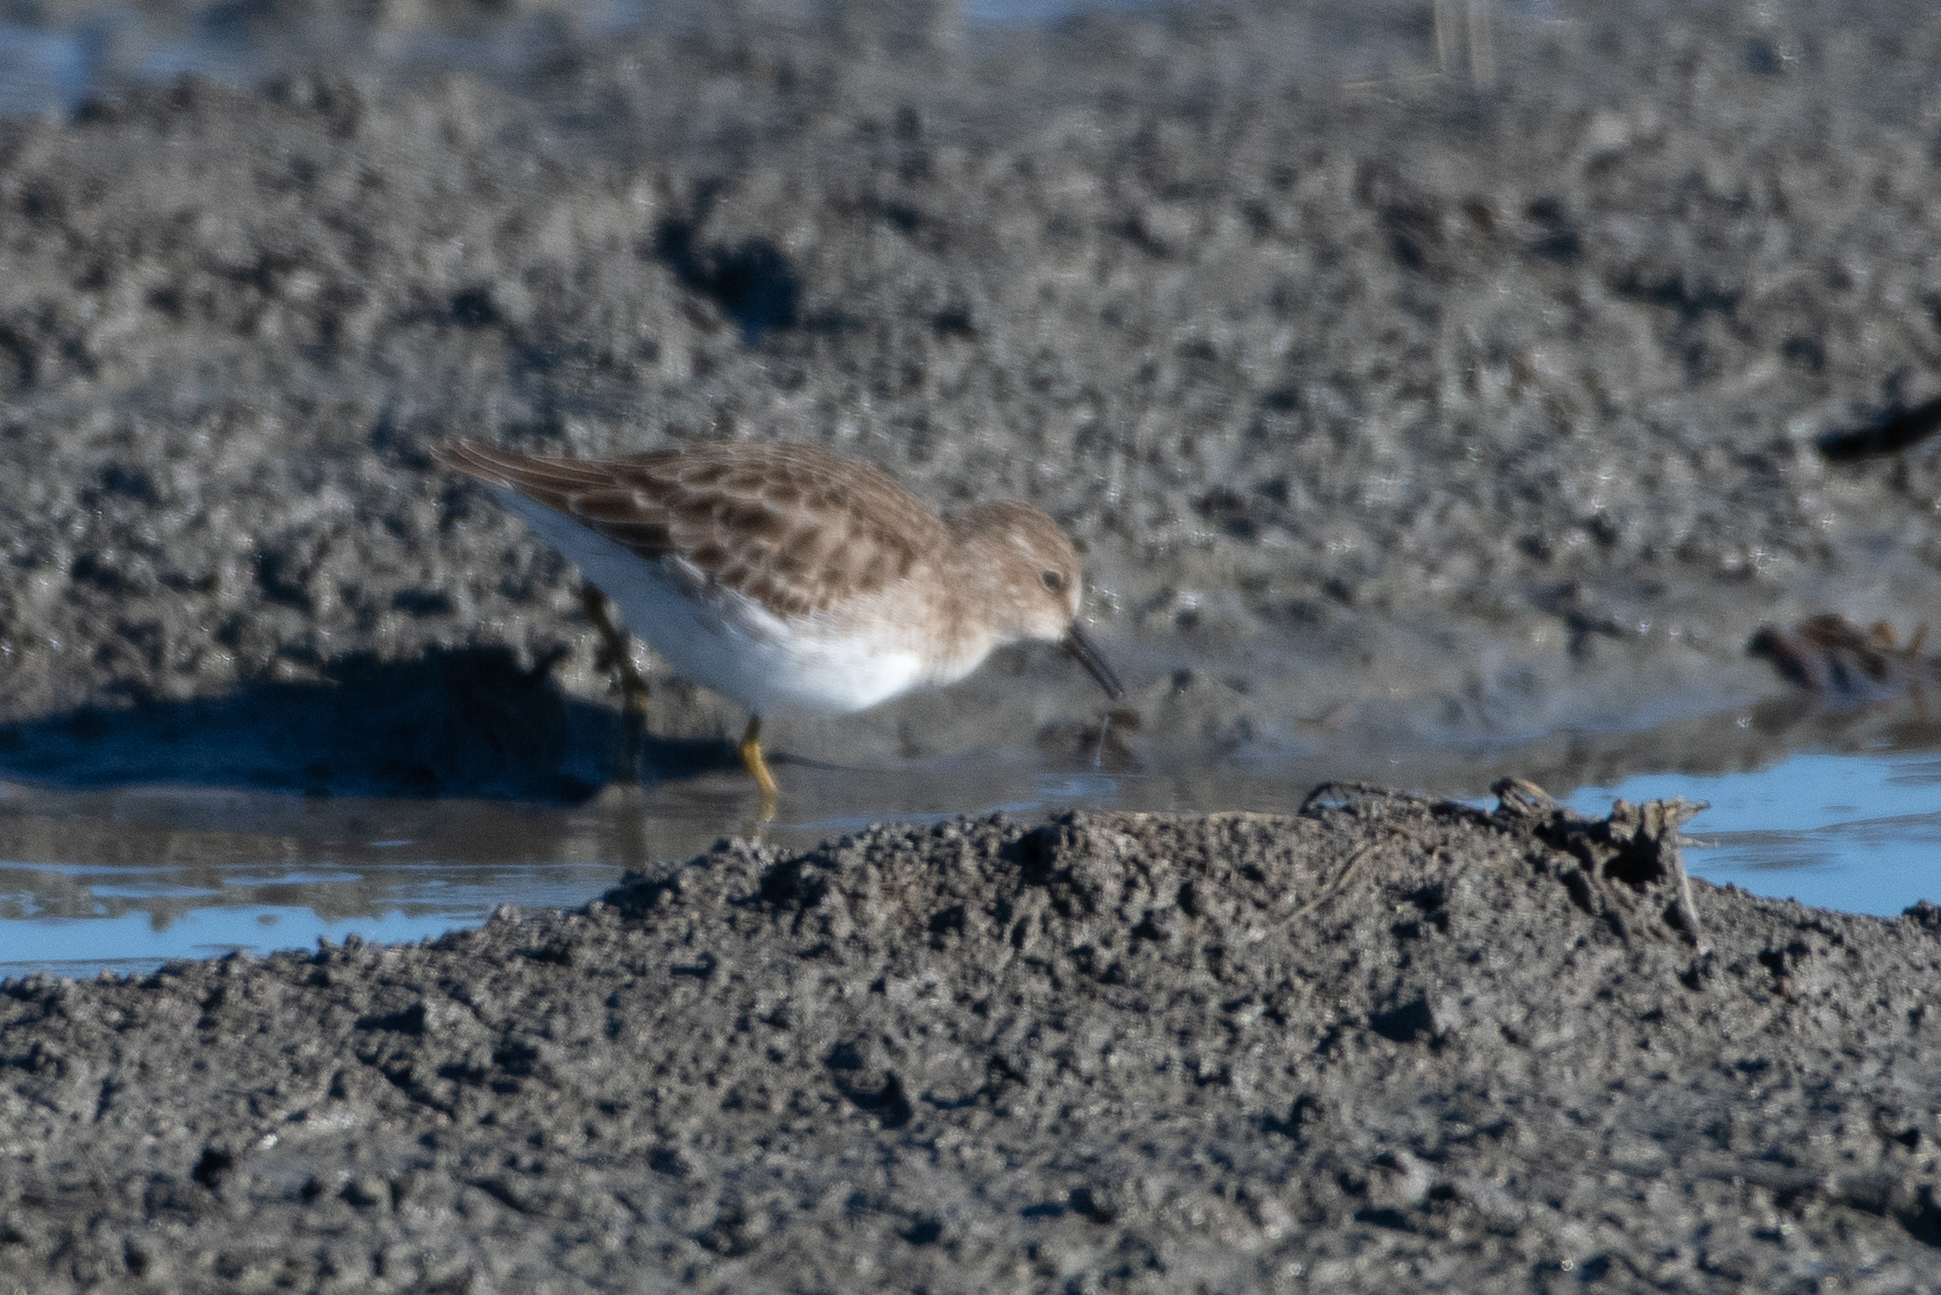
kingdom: Animalia
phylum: Chordata
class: Aves
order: Charadriiformes
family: Scolopacidae
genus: Calidris
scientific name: Calidris minutilla
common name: Least sandpiper
